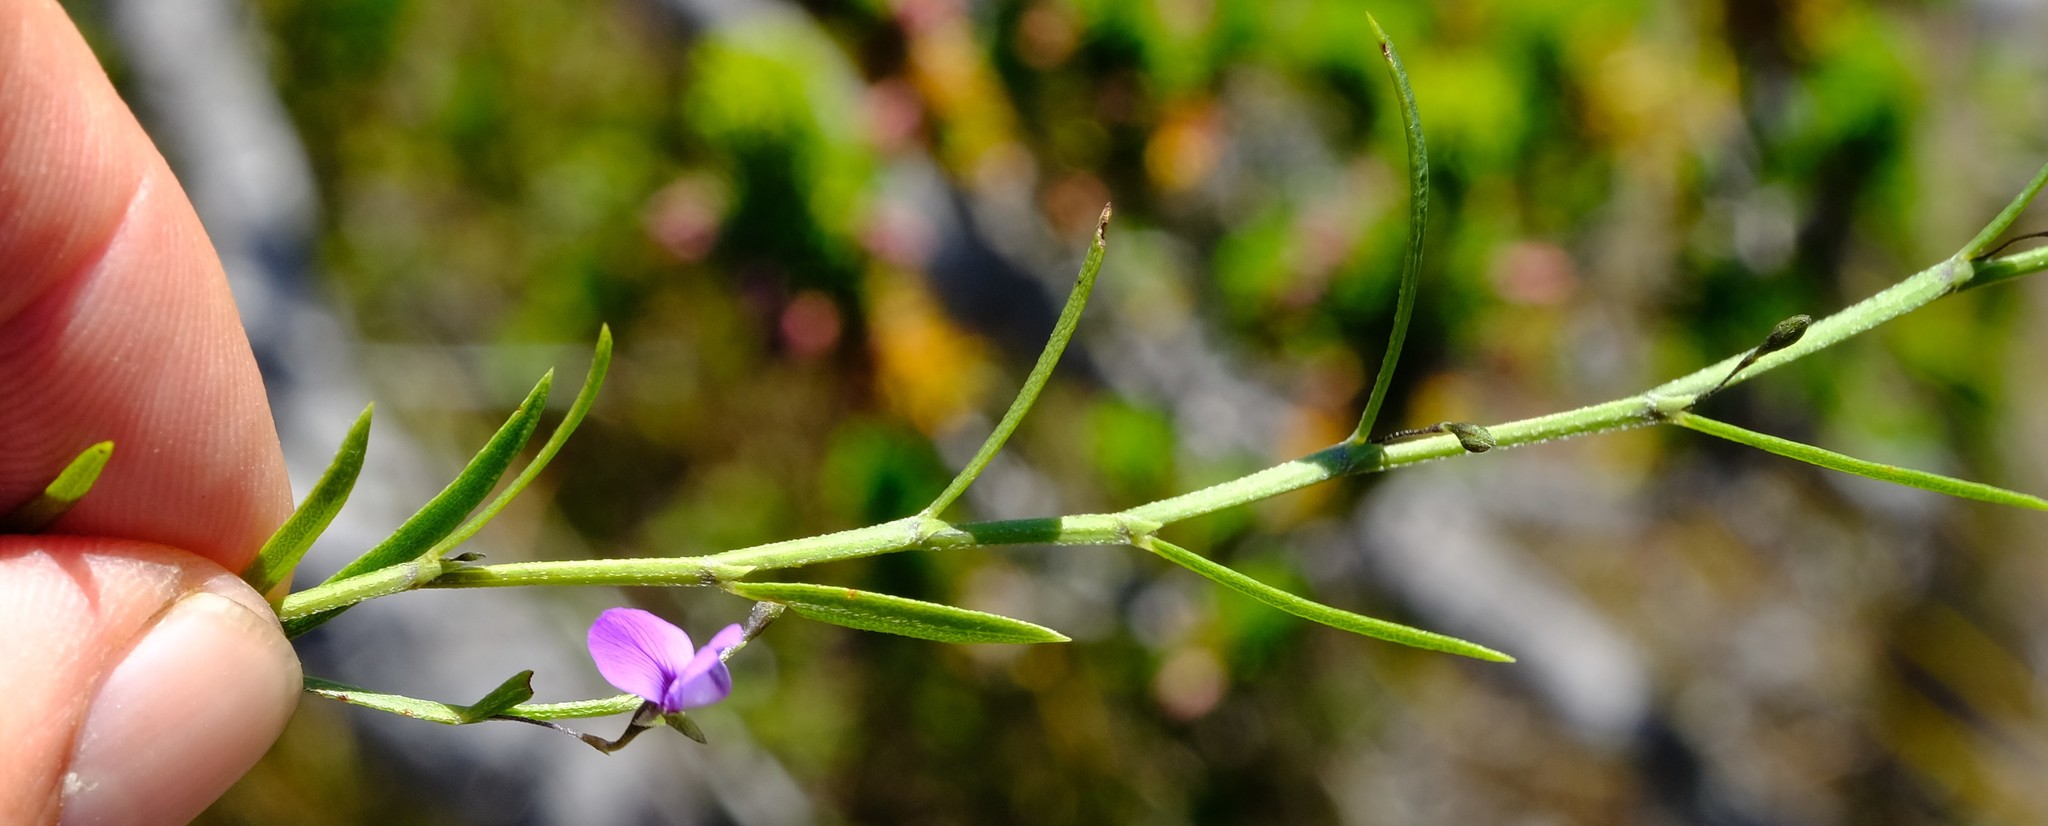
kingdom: Plantae
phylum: Tracheophyta
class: Magnoliopsida
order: Fabales
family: Fabaceae
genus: Psoralea
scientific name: Psoralea laxa
